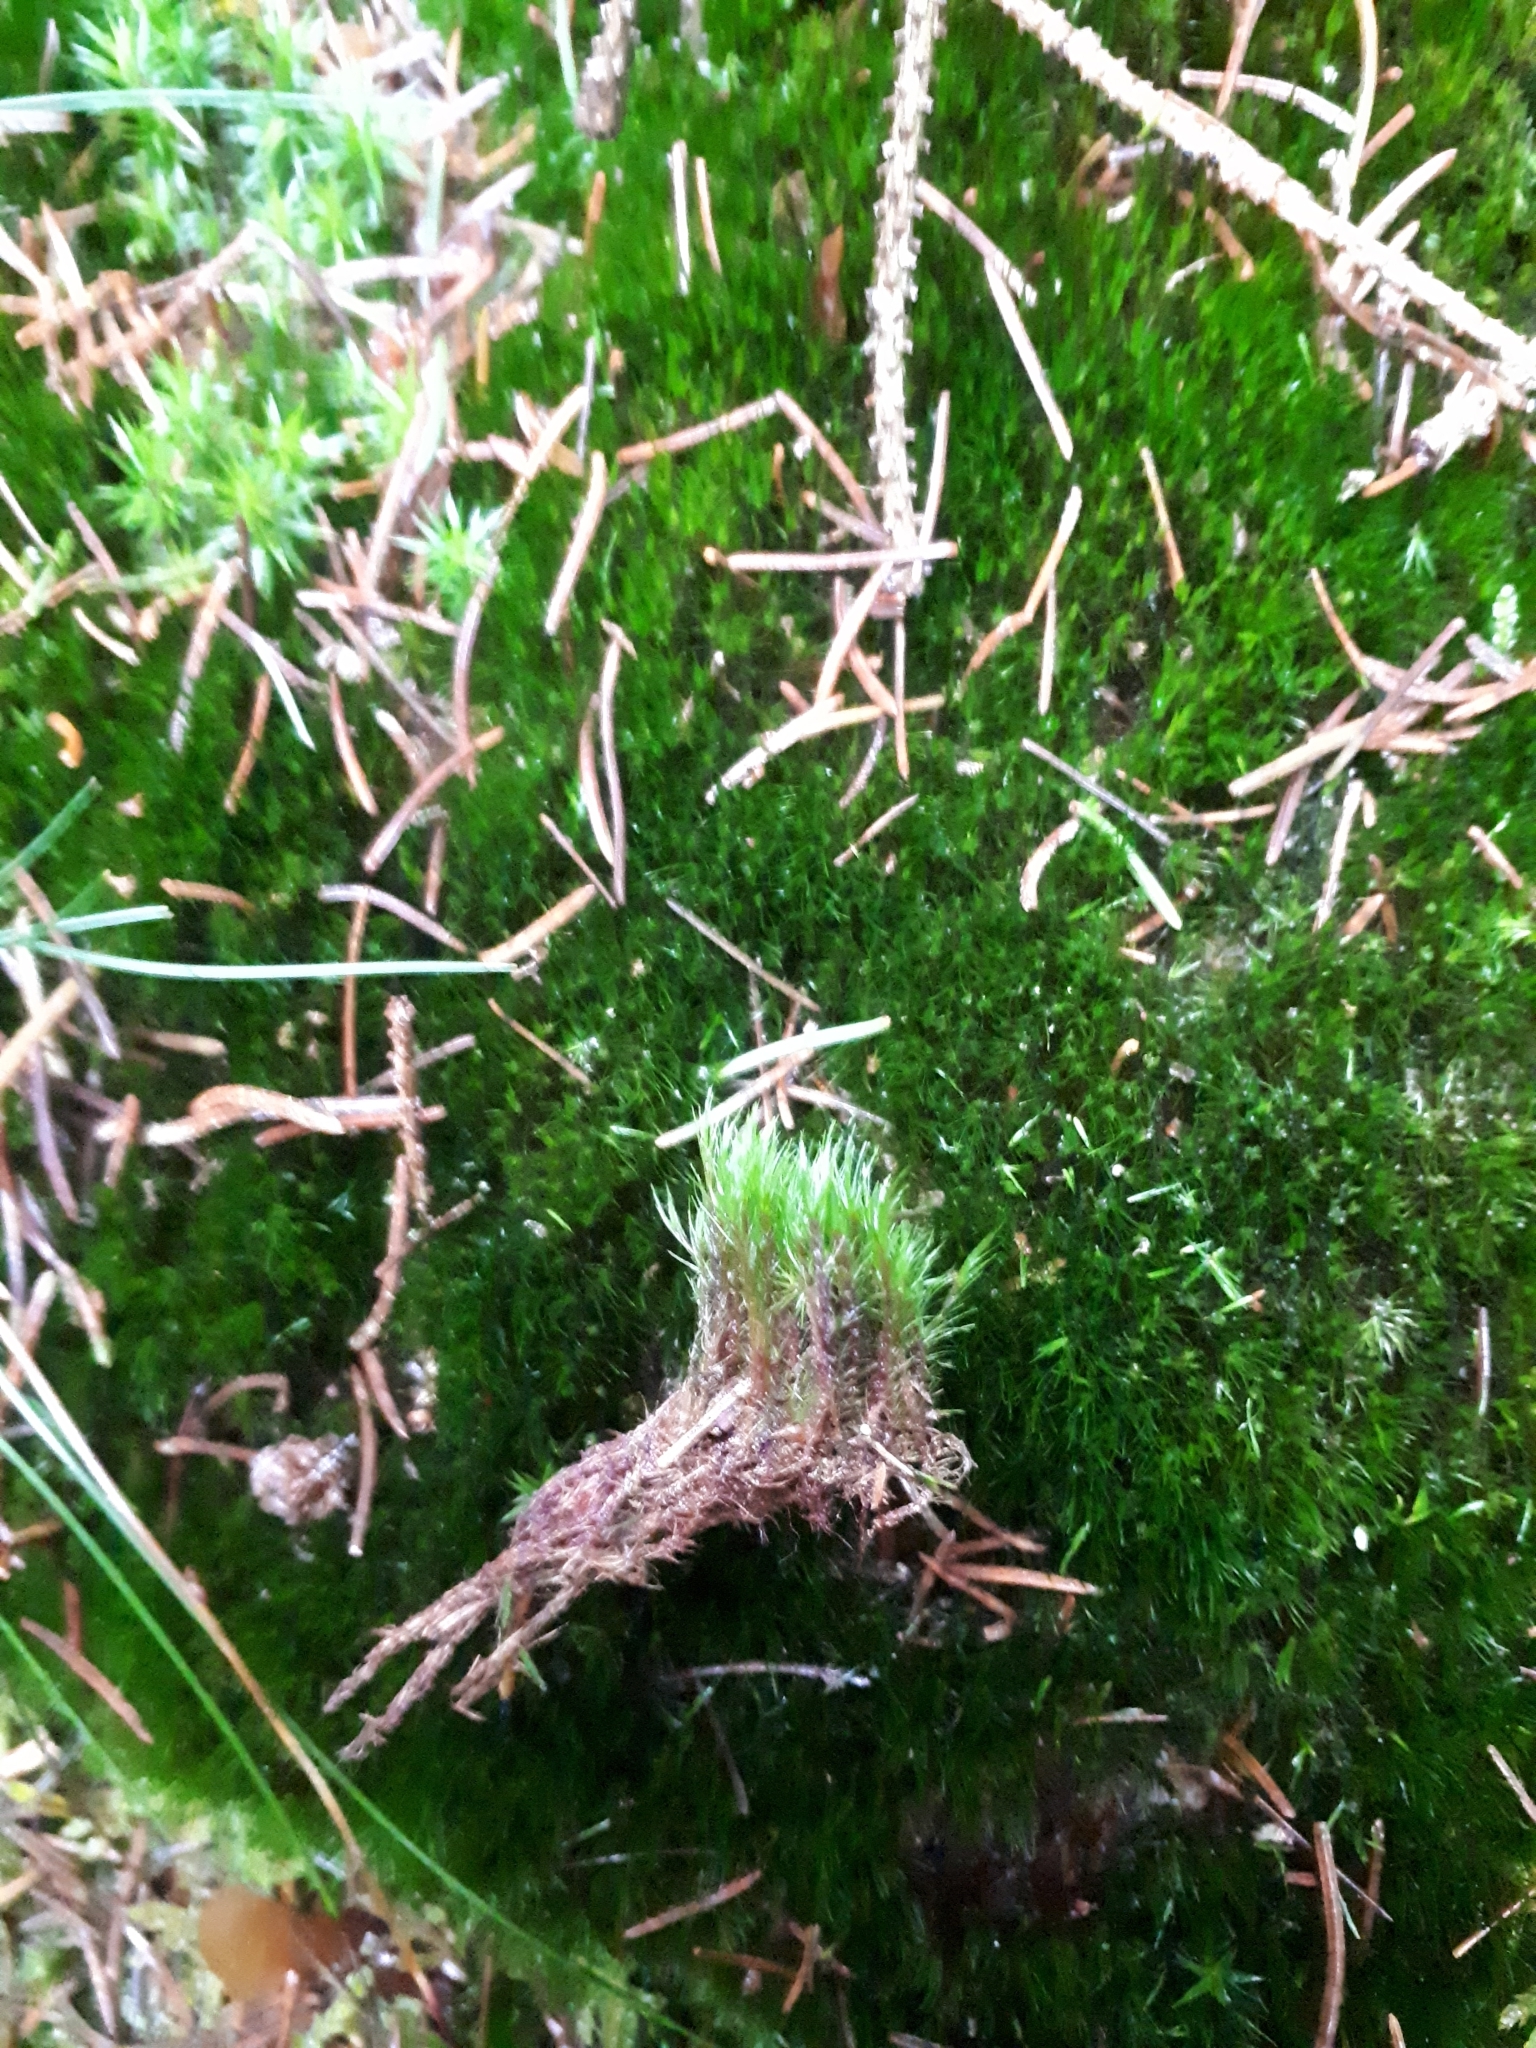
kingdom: Plantae
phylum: Bryophyta
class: Bryopsida
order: Dicranales
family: Leucobryaceae
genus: Campylopus
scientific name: Campylopus flexuosus
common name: Rusty swan-neck moss
